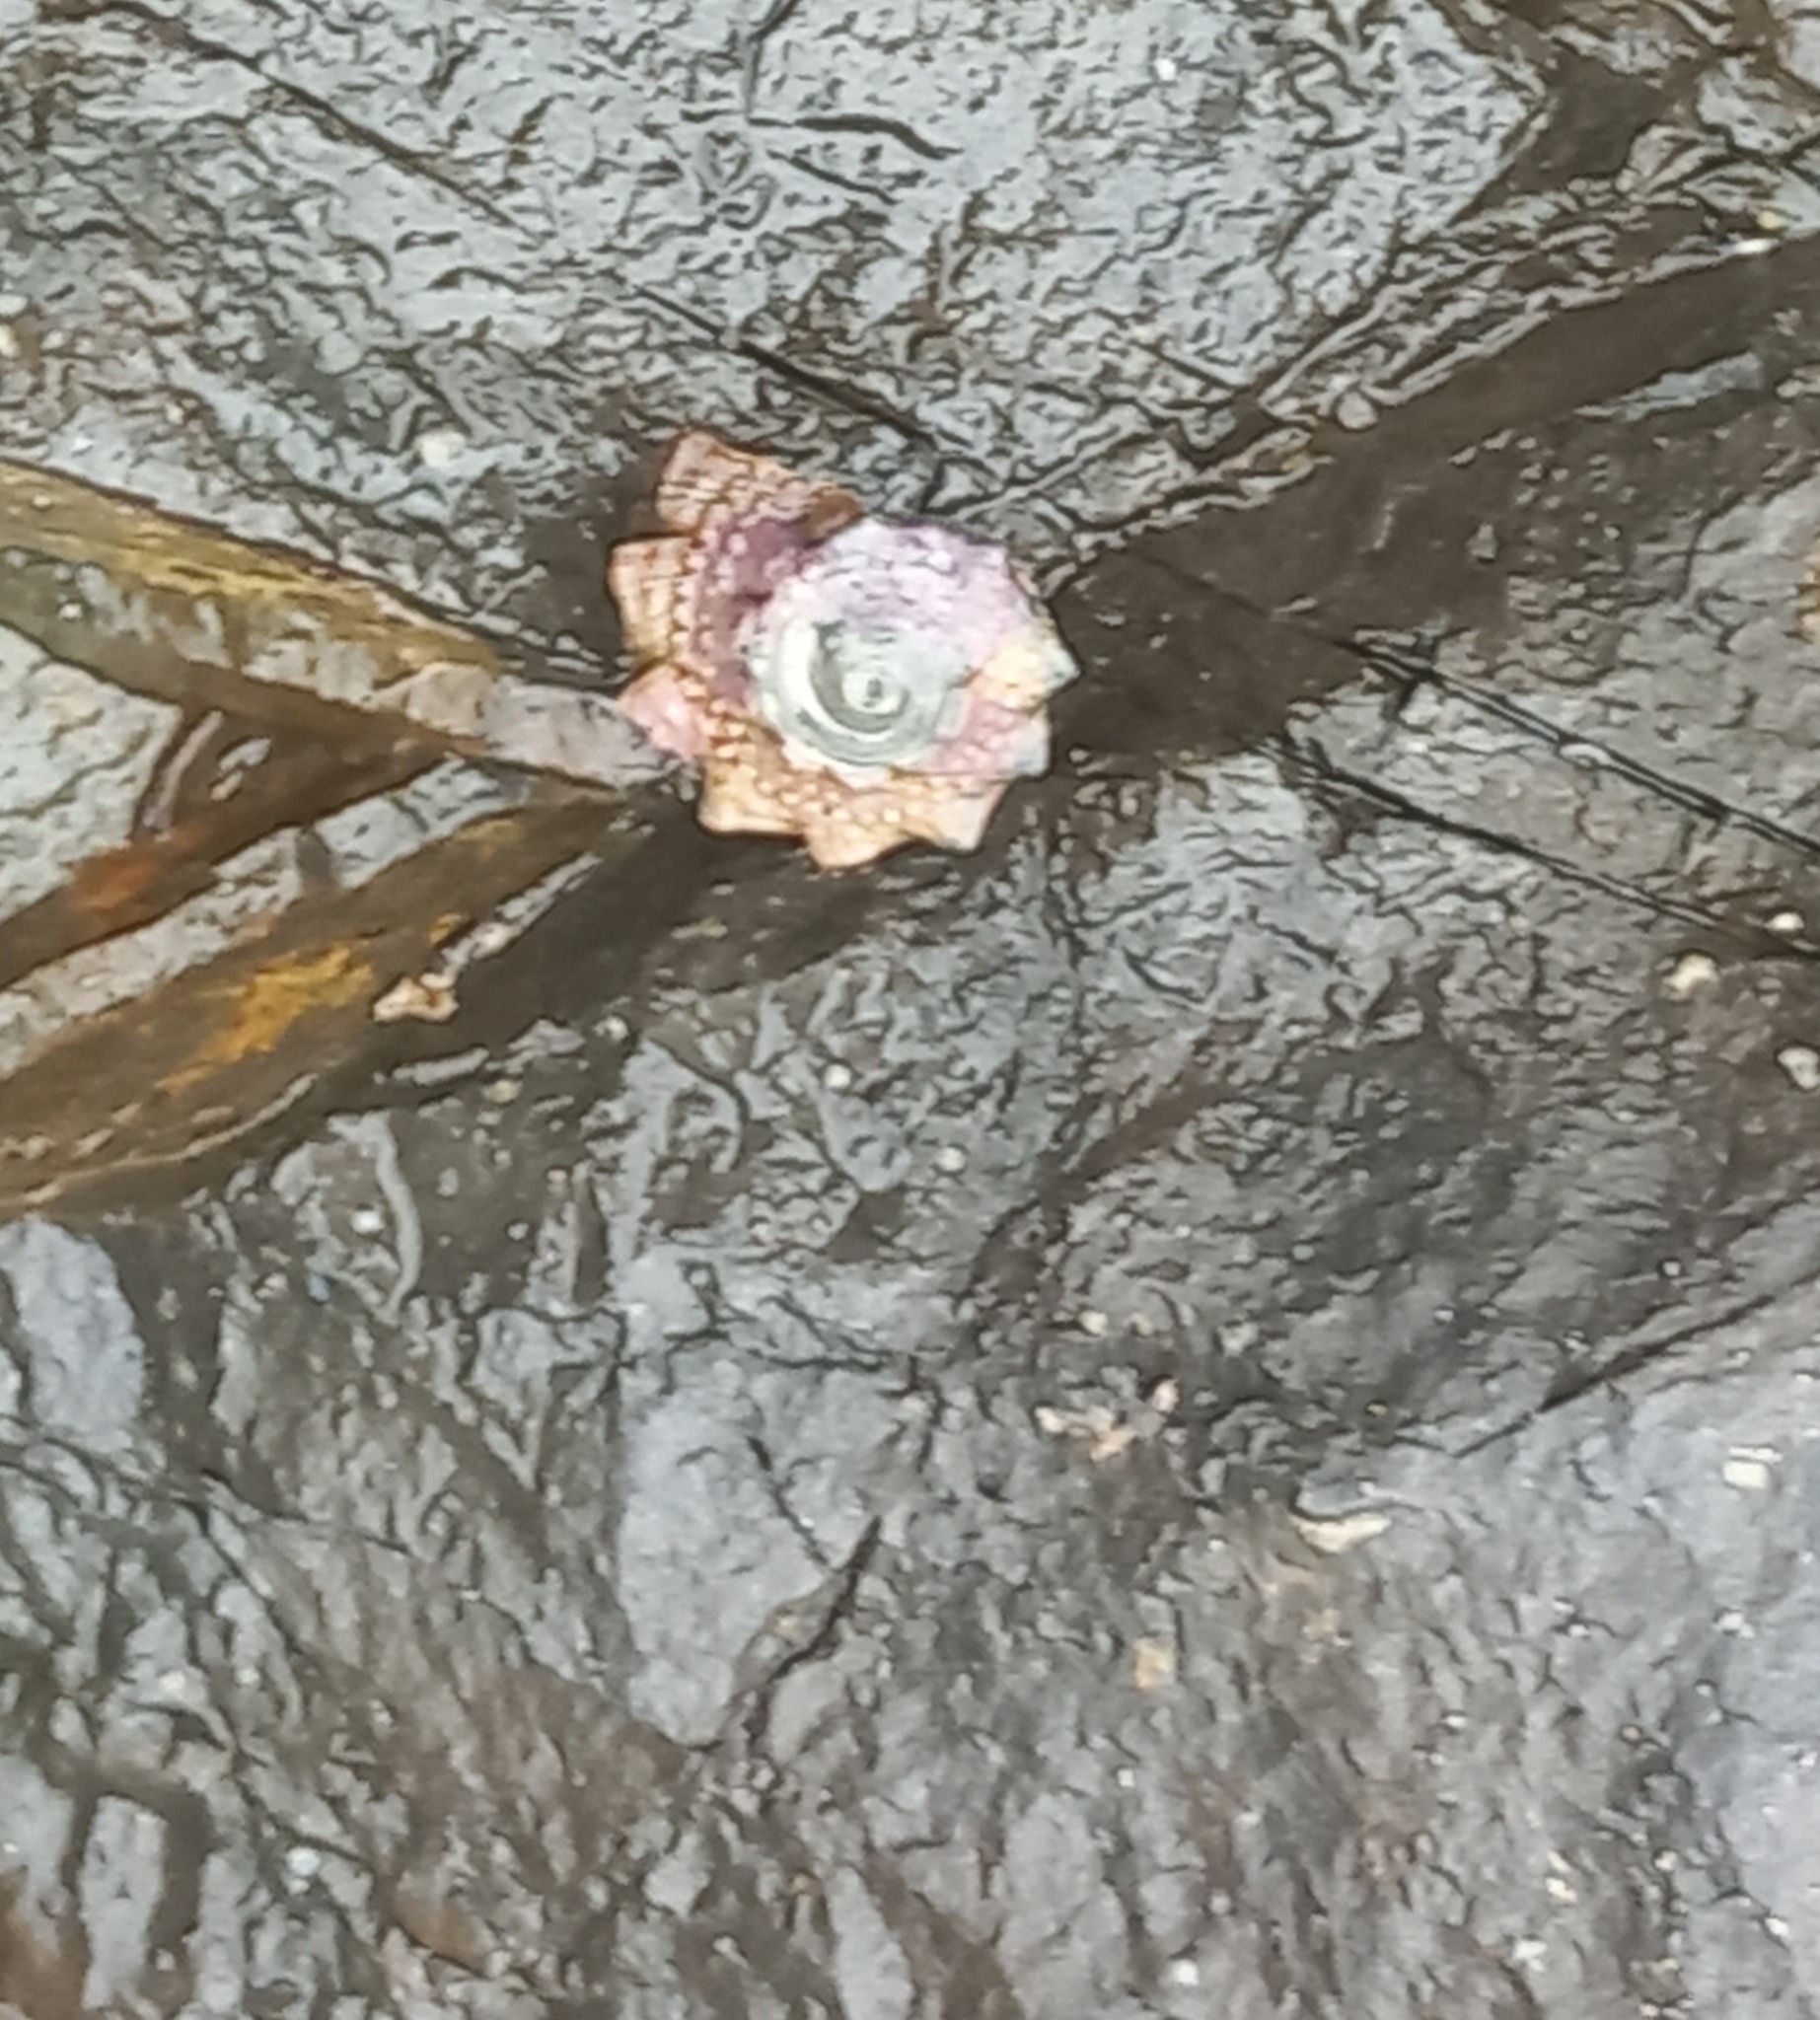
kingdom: Animalia
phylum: Mollusca
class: Gastropoda
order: Trochida
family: Turbinidae
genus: Lunella
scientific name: Lunella coronata
